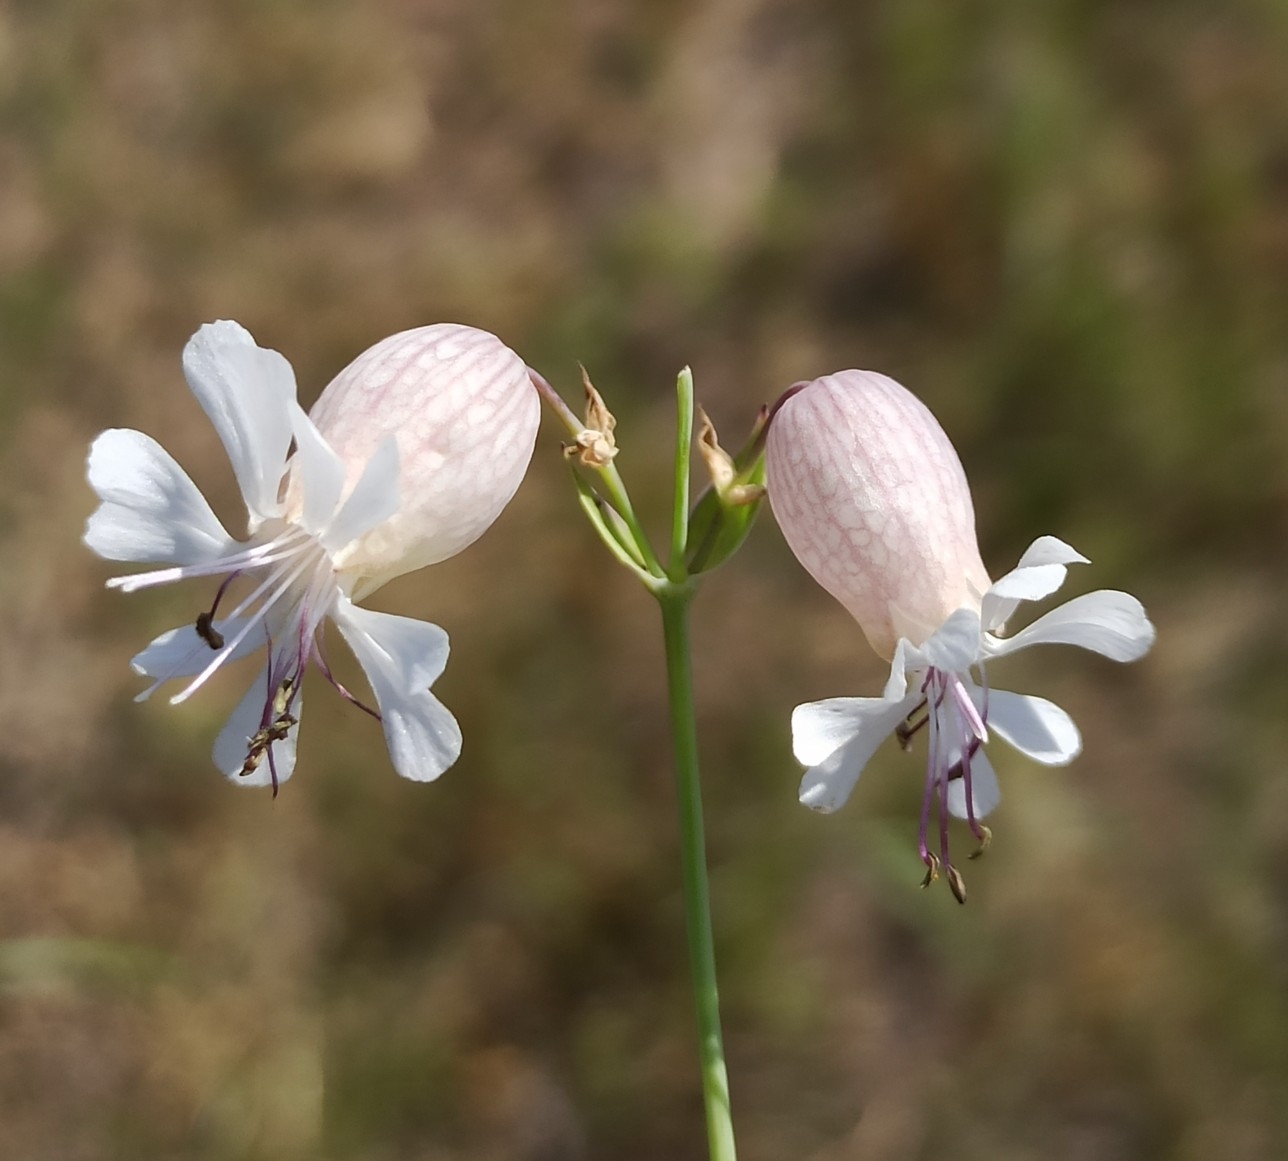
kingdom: Plantae
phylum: Tracheophyta
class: Magnoliopsida
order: Caryophyllales
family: Caryophyllaceae
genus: Silene
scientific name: Silene vulgaris
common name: Bladder campion
